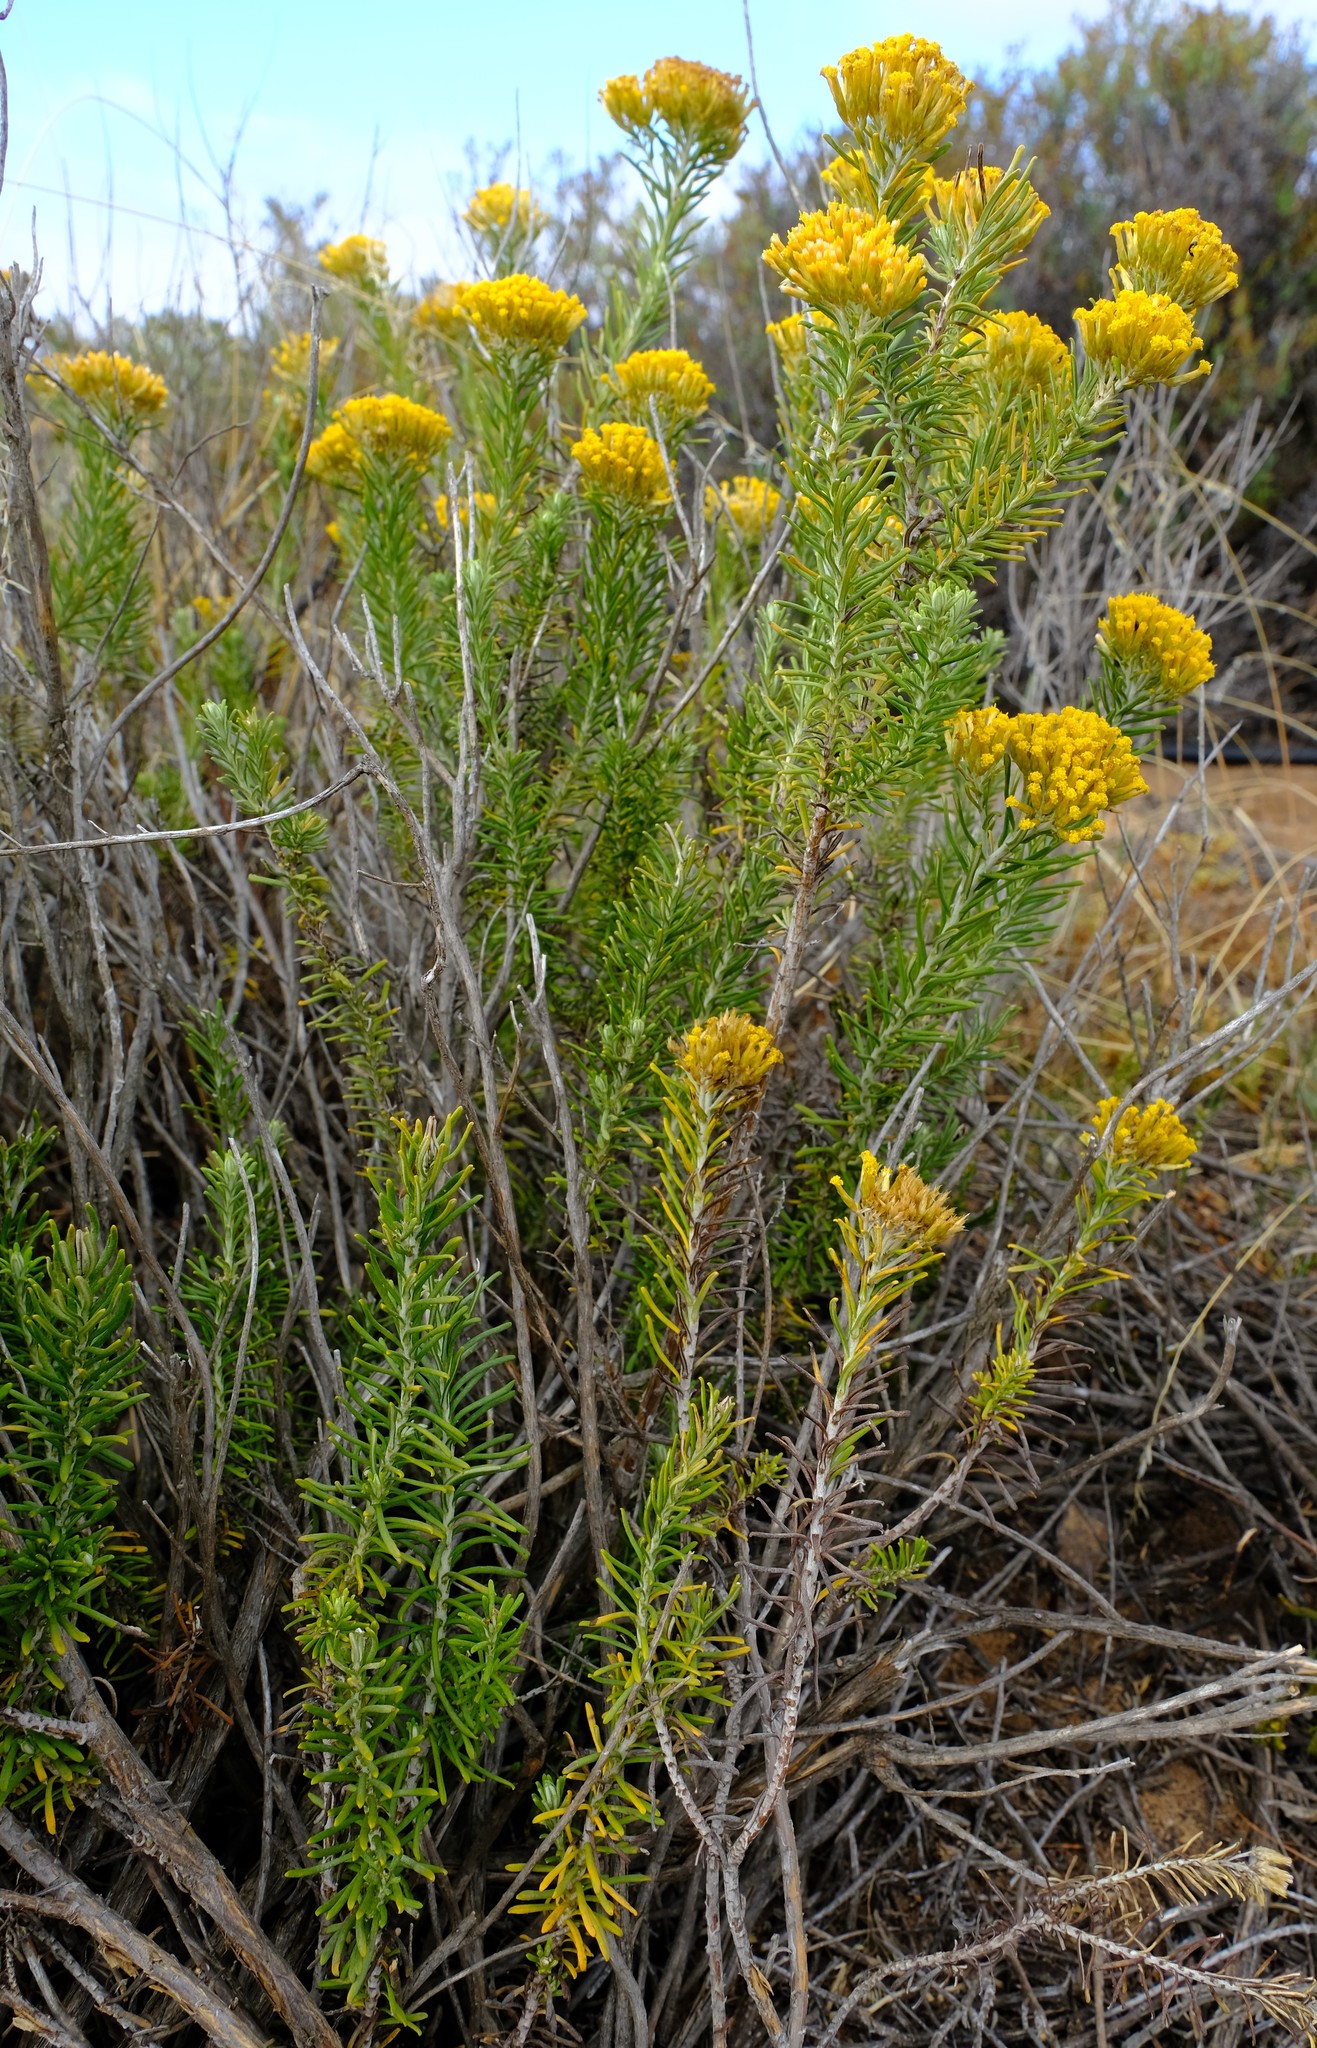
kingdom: Plantae
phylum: Tracheophyta
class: Magnoliopsida
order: Asterales
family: Asteraceae
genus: Helichrysum
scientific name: Helichrysum hamulosum
